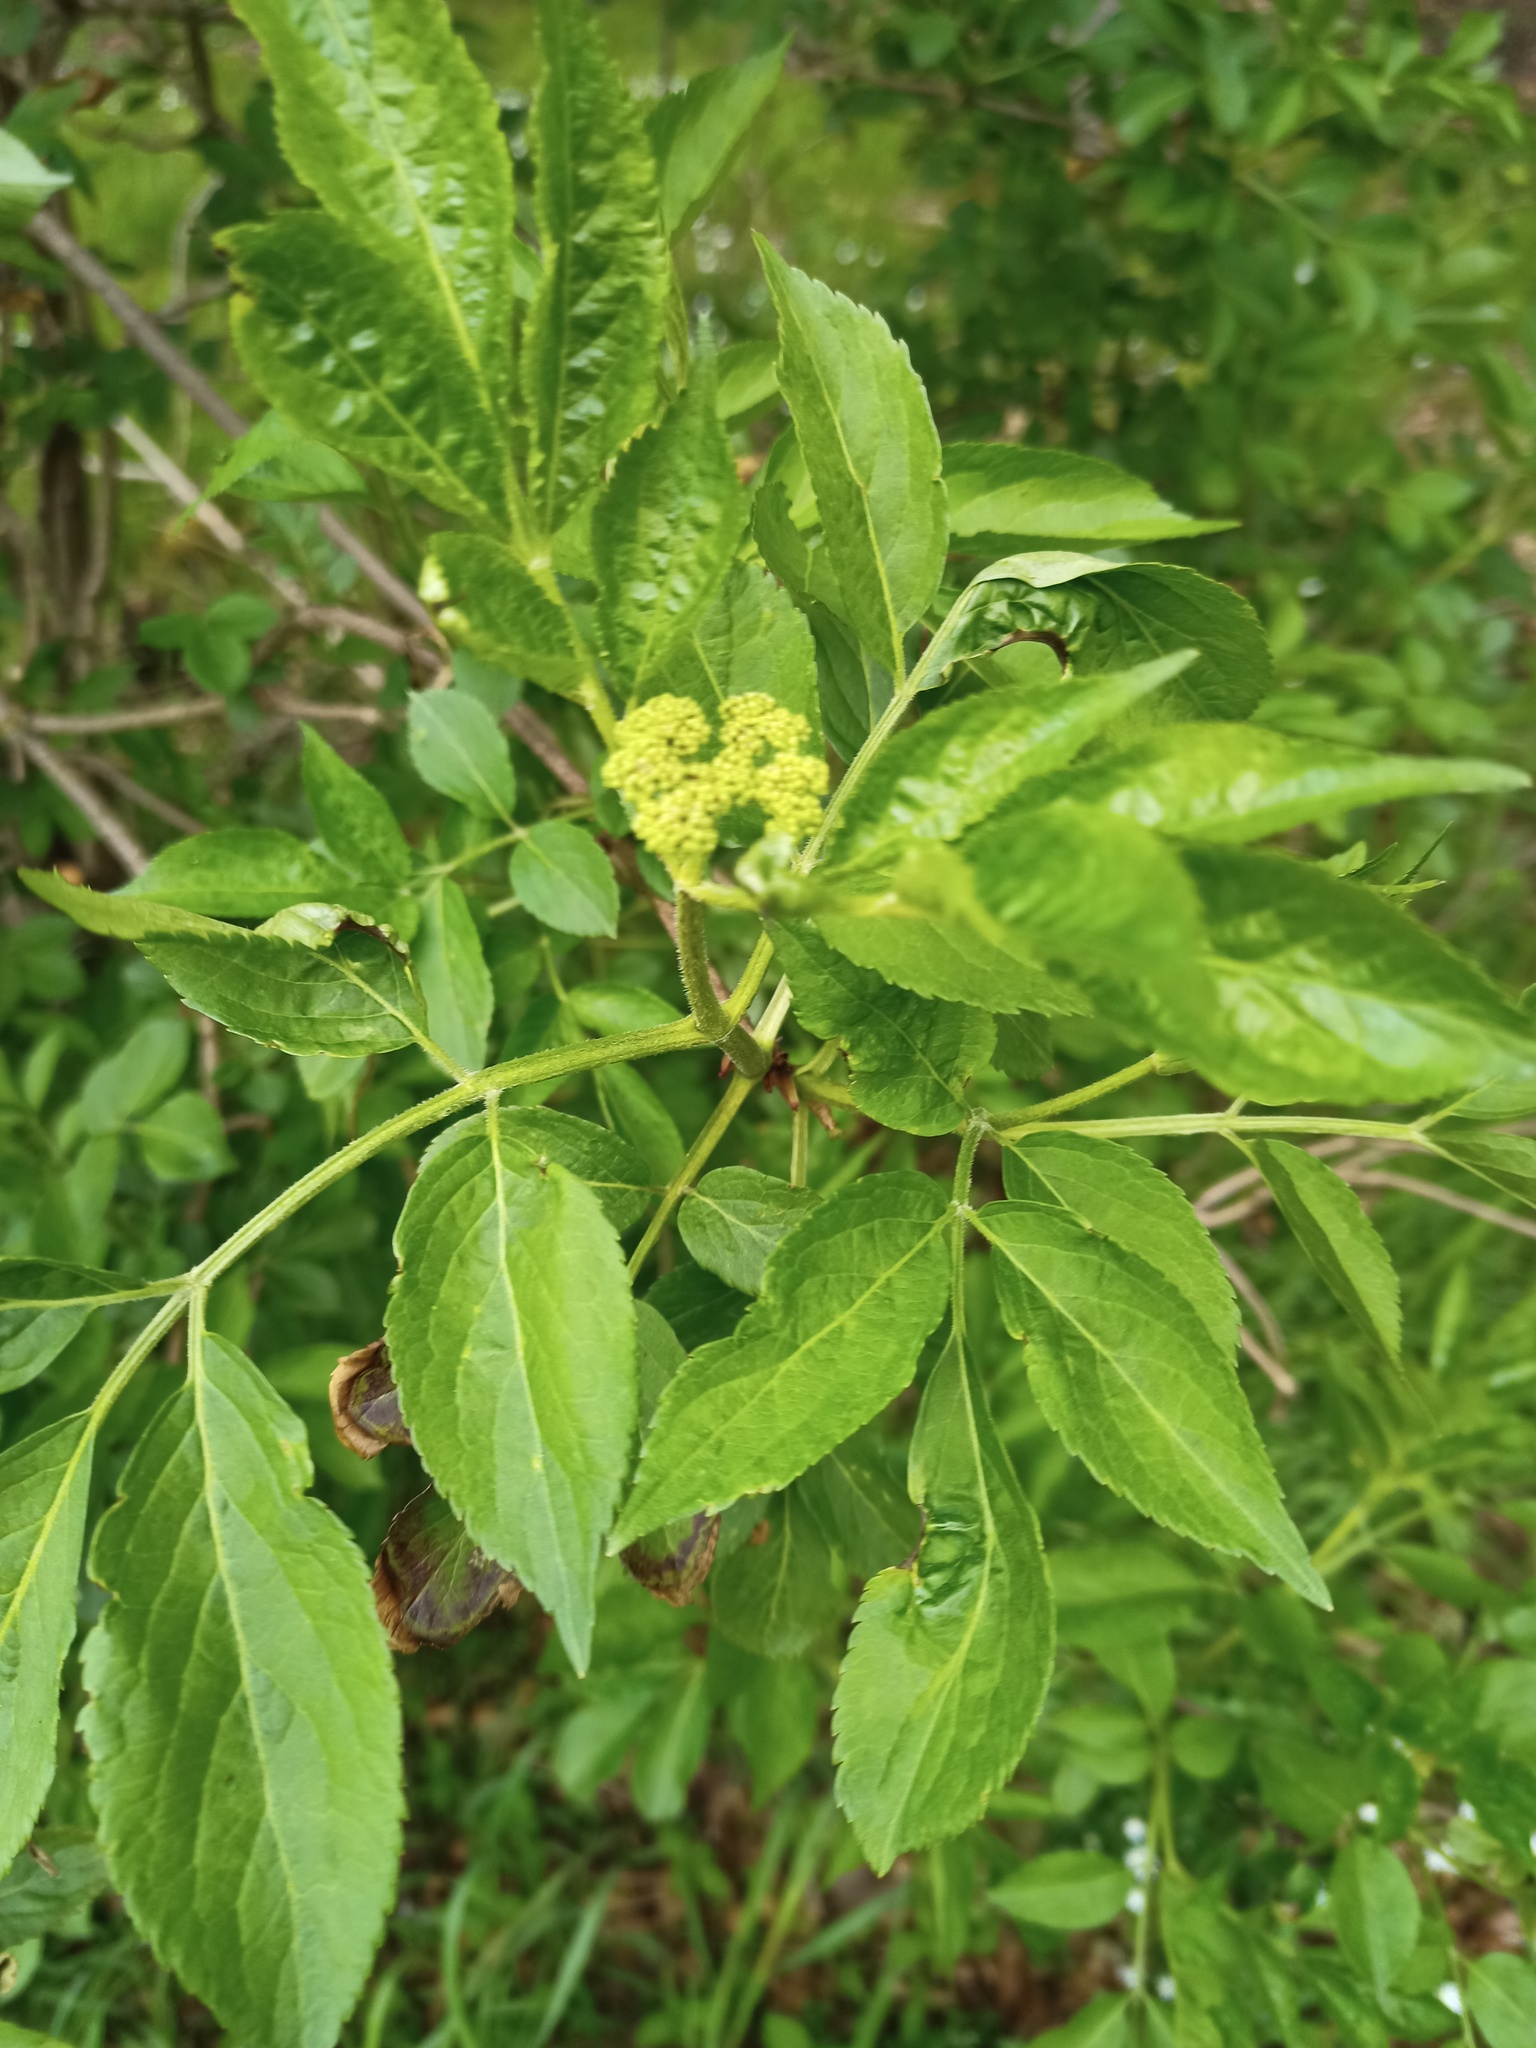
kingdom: Plantae
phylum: Tracheophyta
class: Magnoliopsida
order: Dipsacales
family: Viburnaceae
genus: Sambucus
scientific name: Sambucus nigra
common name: Elder
